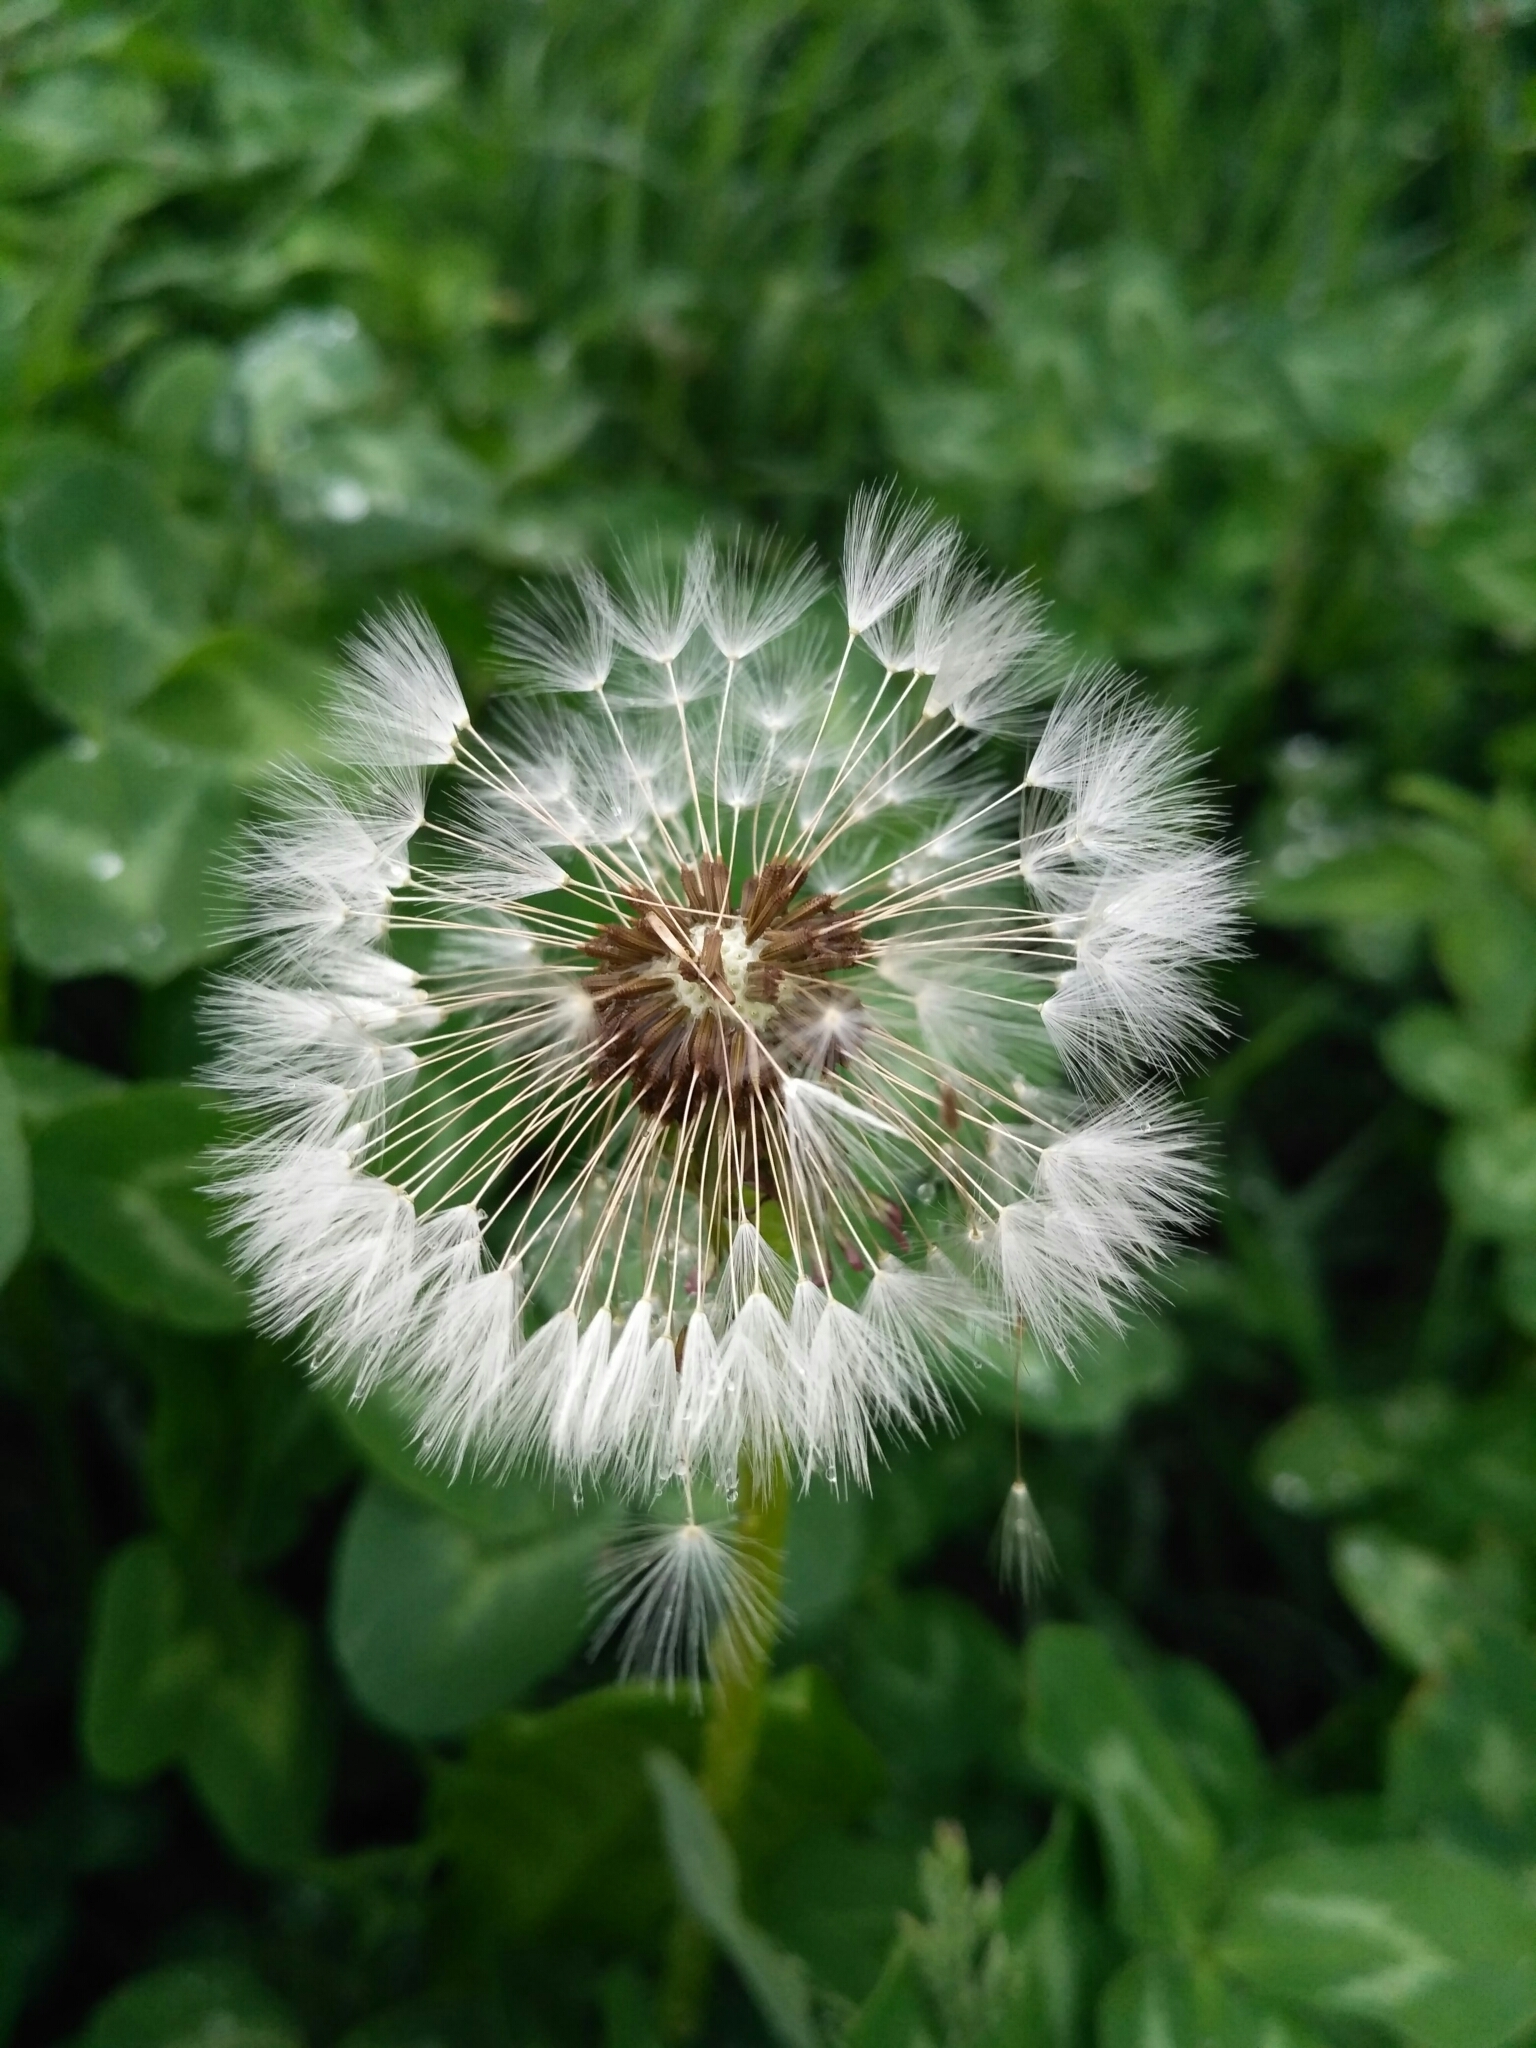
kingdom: Plantae
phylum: Tracheophyta
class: Magnoliopsida
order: Asterales
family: Asteraceae
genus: Taraxacum
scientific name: Taraxacum officinale
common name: Common dandelion
